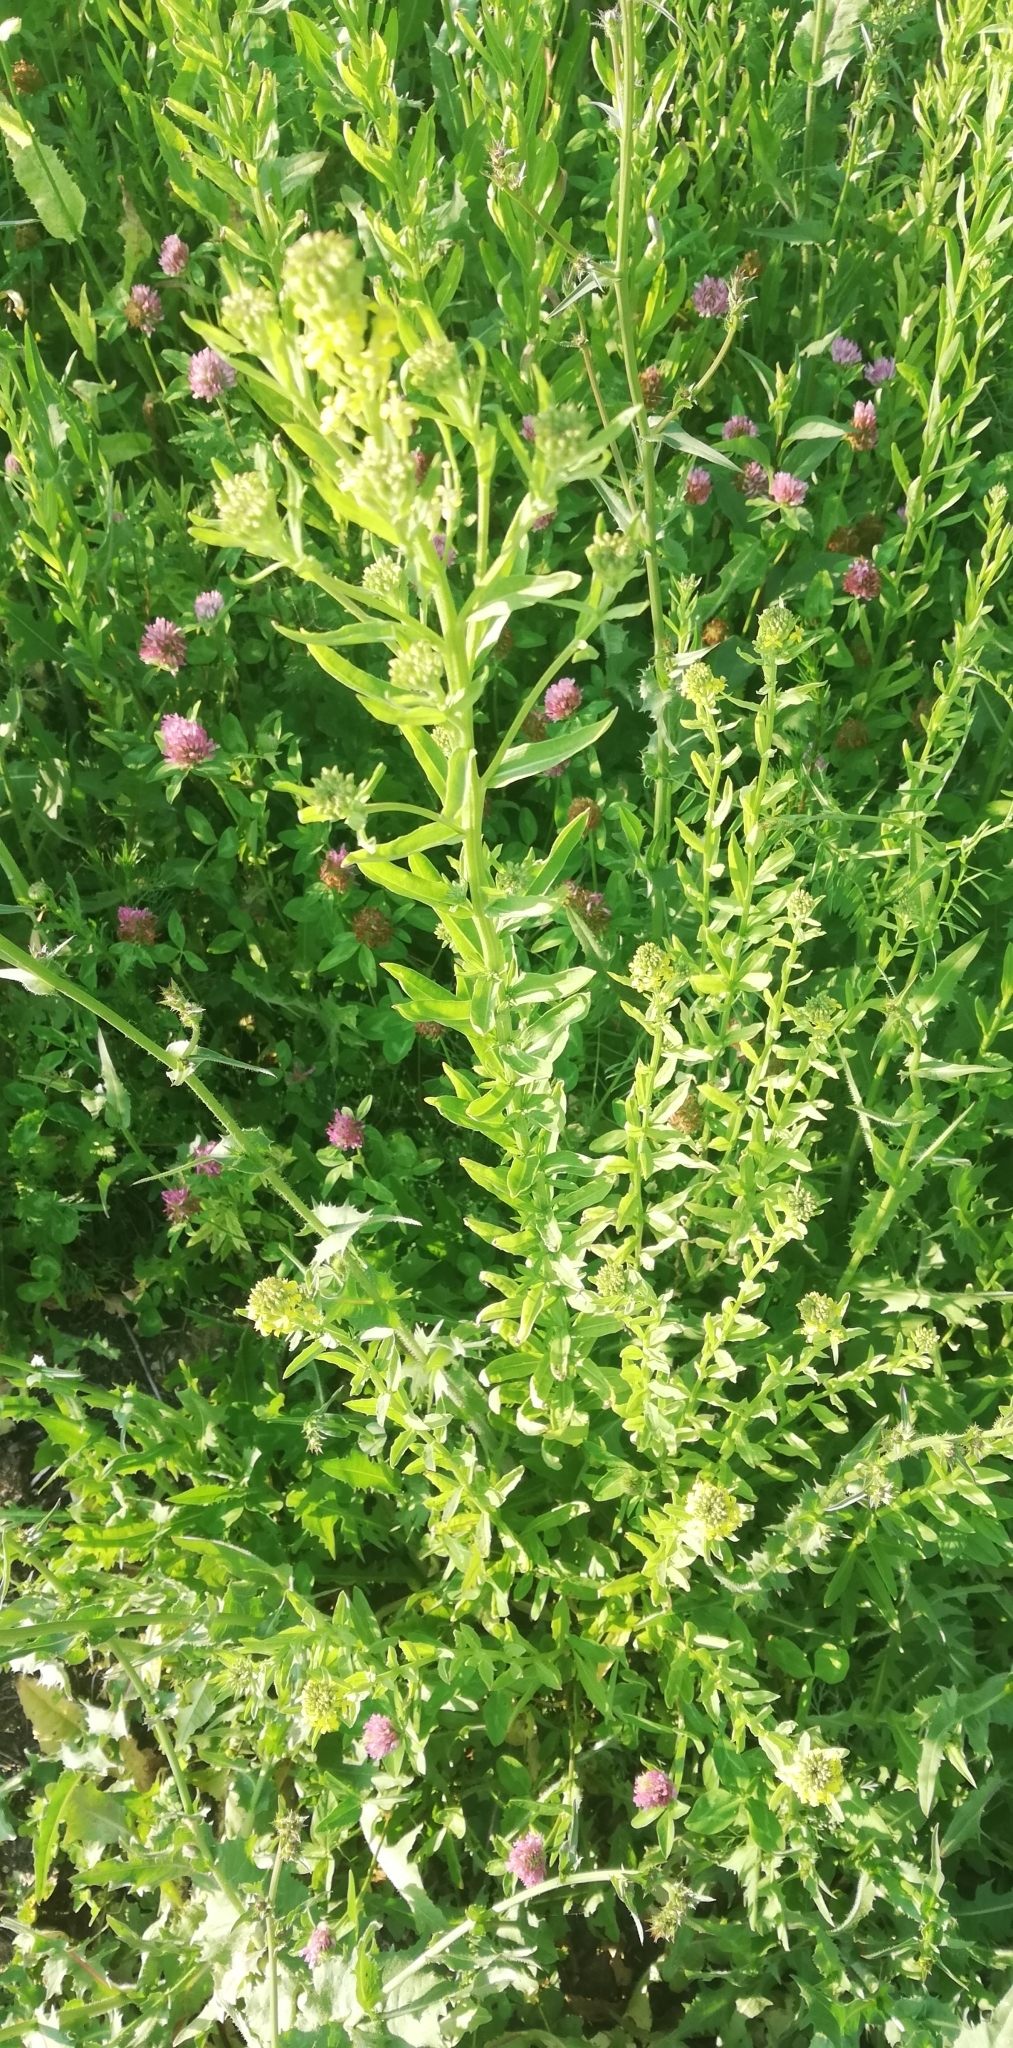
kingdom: Plantae
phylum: Tracheophyta
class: Magnoliopsida
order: Brassicales
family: Brassicaceae
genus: Erysimum
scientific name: Erysimum hieraciifolium
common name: European wallflower
